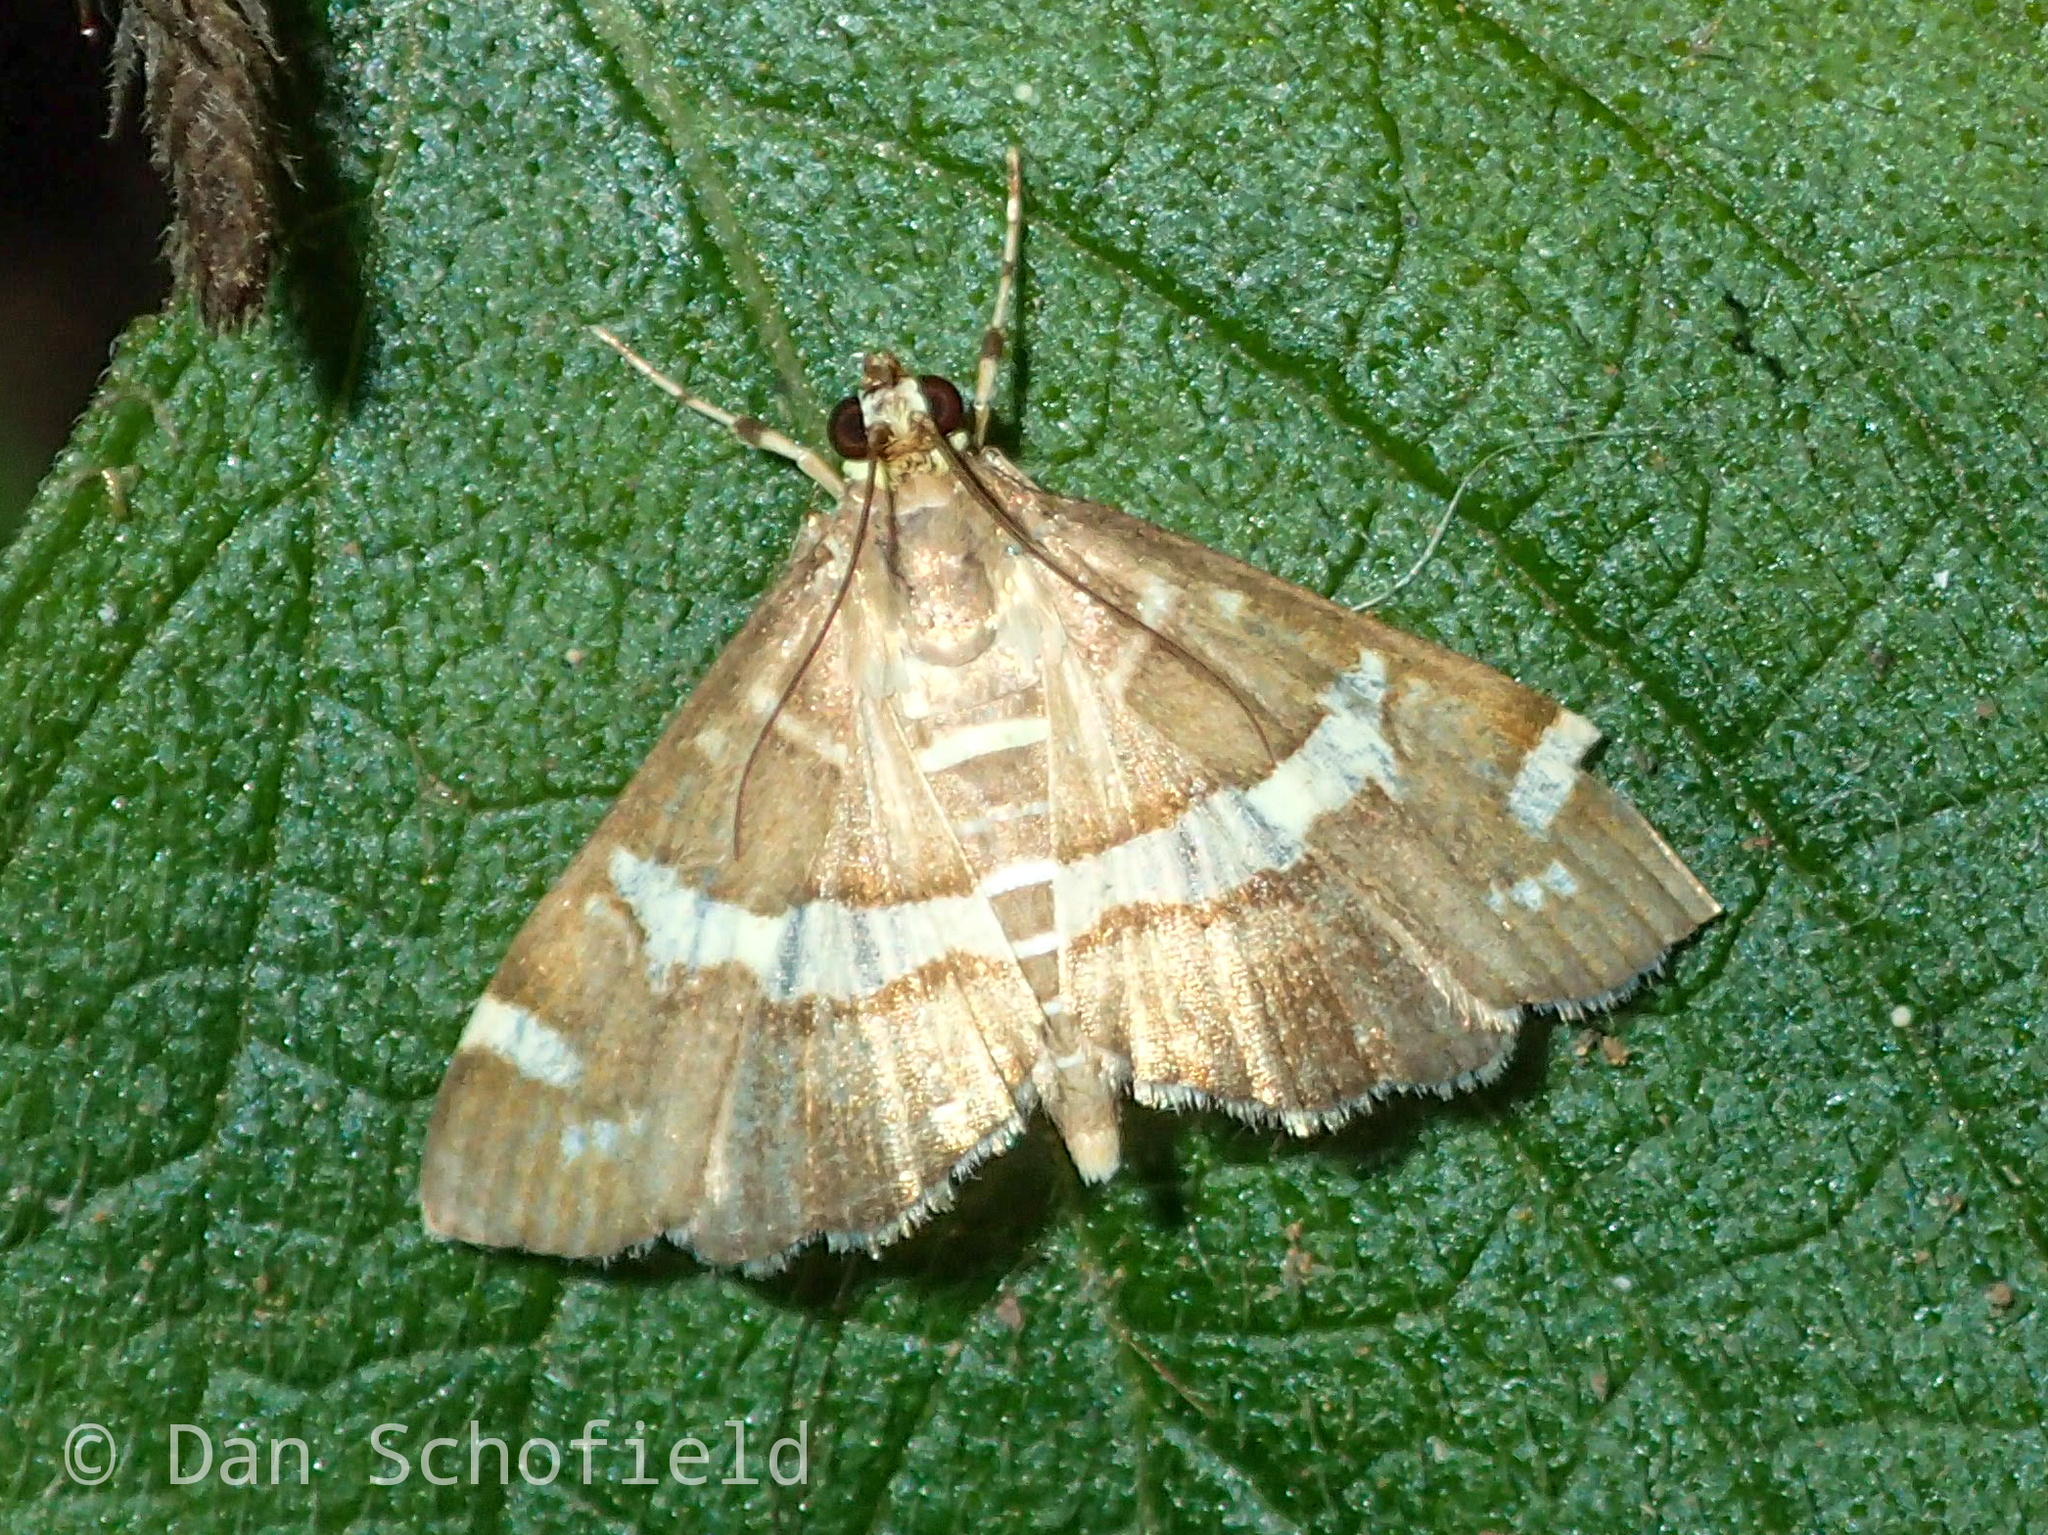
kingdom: Animalia
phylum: Arthropoda
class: Insecta
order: Lepidoptera
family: Crambidae
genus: Spoladea
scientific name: Spoladea recurvalis
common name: Beet webworm moth
